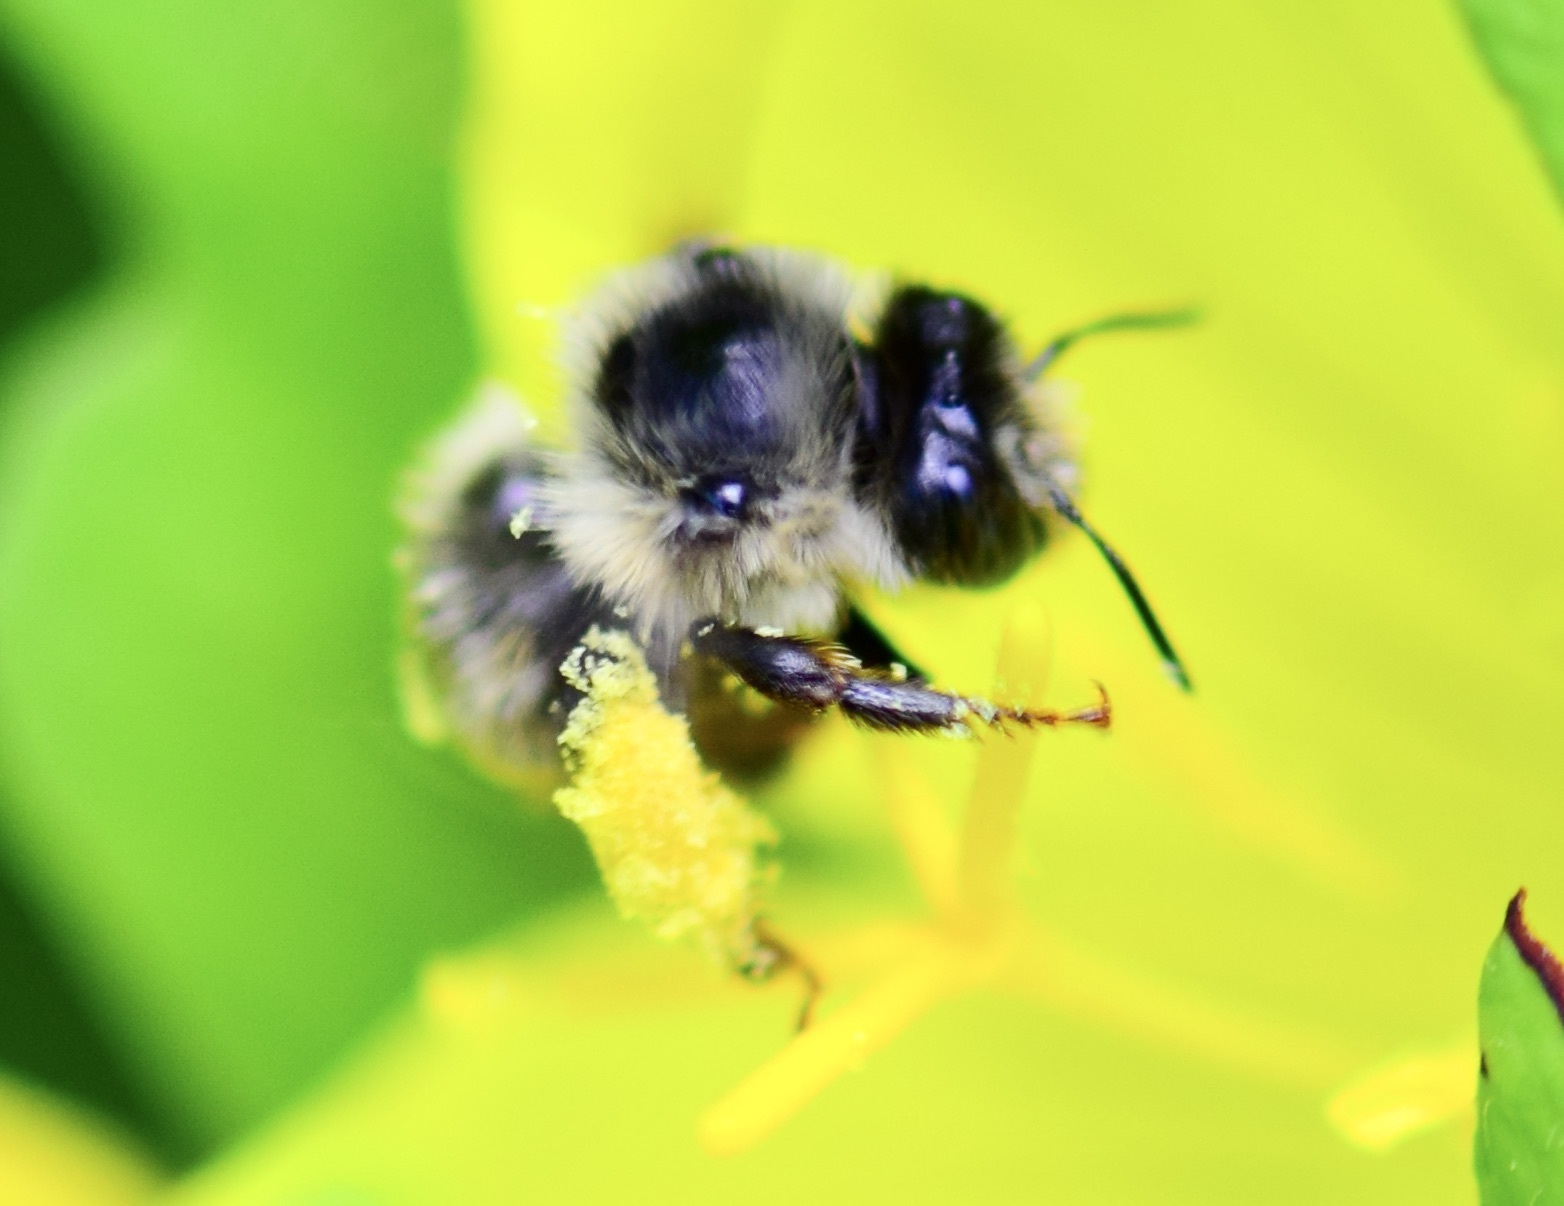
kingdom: Animalia
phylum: Arthropoda
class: Insecta
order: Hymenoptera
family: Apidae
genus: Anthophora
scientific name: Anthophora terminalis
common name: Orange-tipped wood-digger bee
